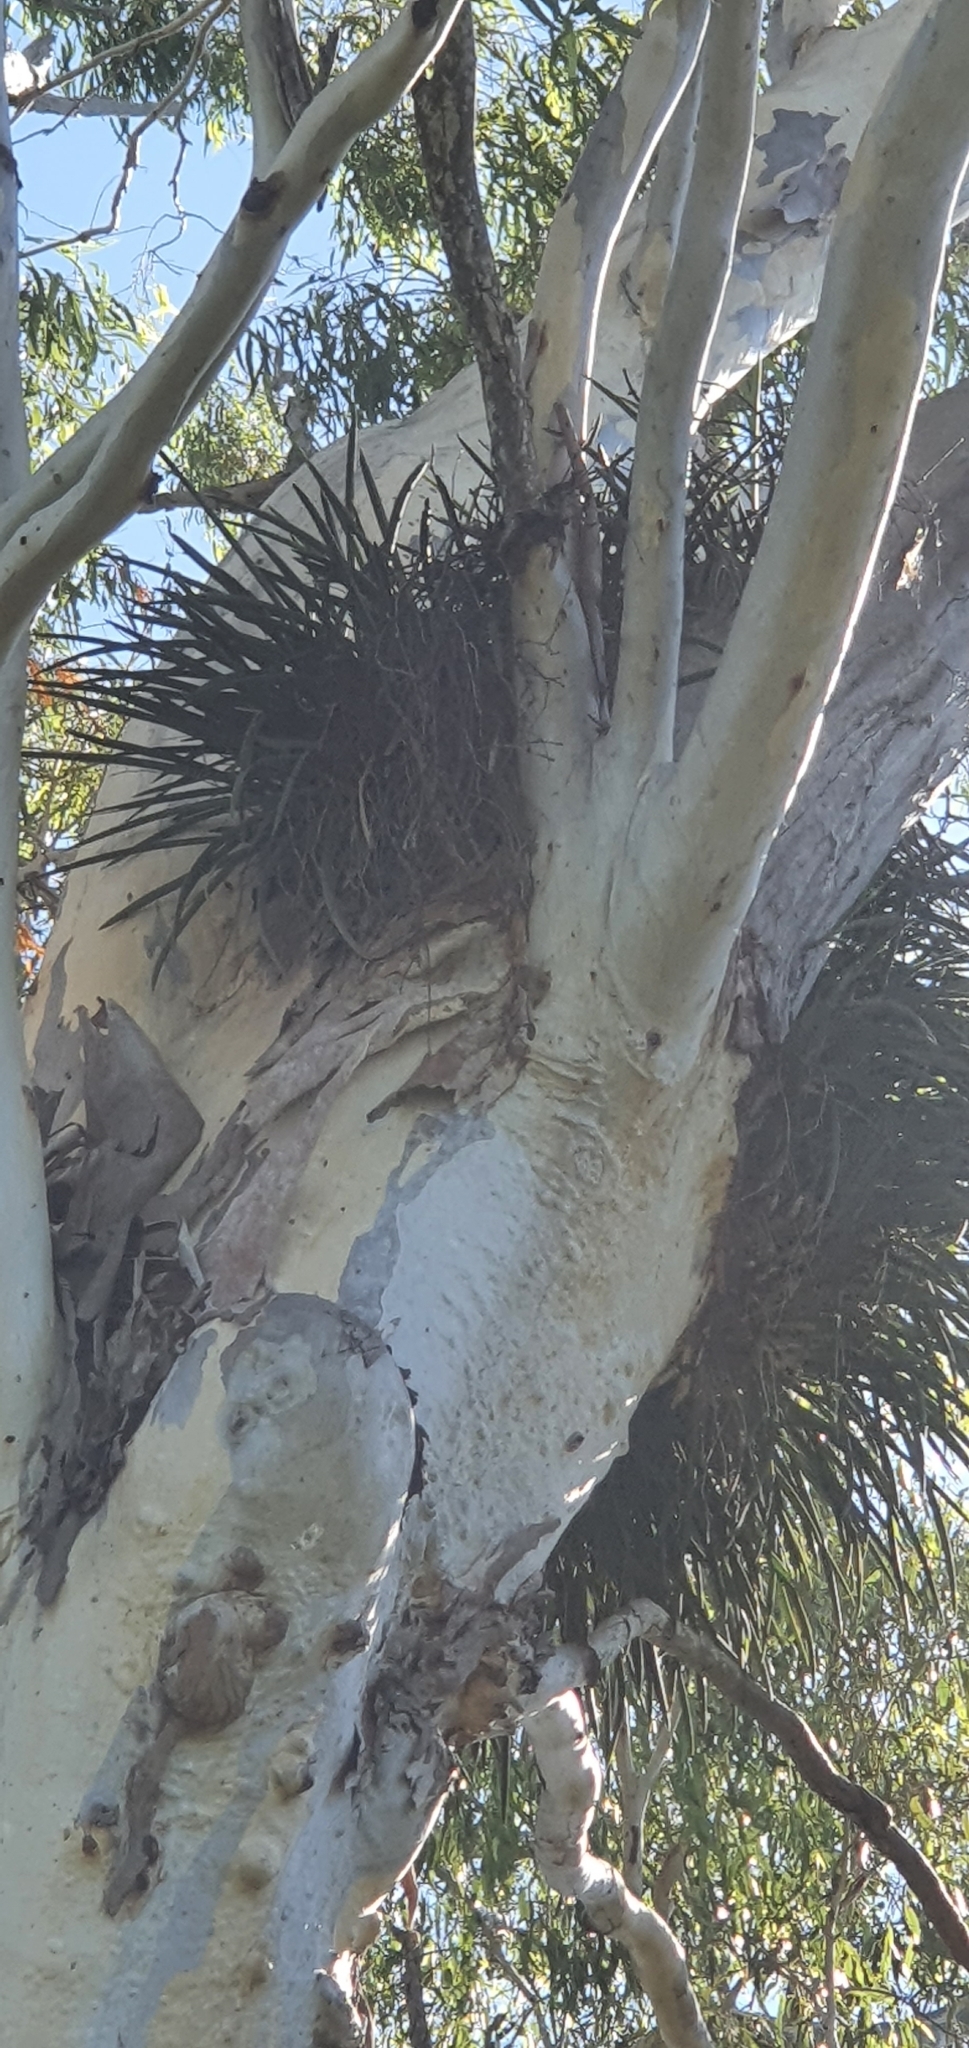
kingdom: Plantae
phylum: Tracheophyta
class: Liliopsida
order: Asparagales
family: Orchidaceae
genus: Cymbidium
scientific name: Cymbidium canaliculatum
